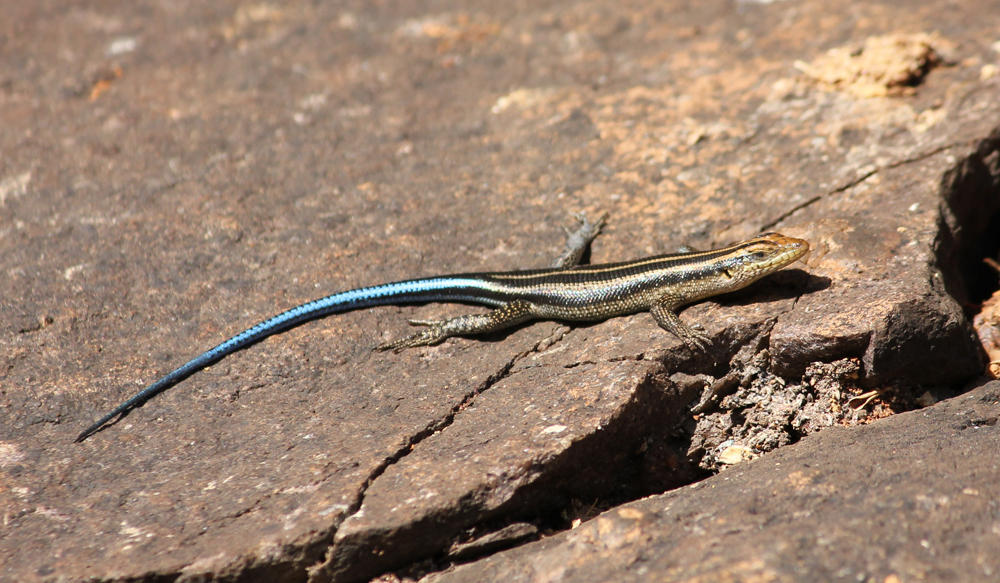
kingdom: Animalia
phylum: Chordata
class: Squamata
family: Scincidae
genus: Trachylepis
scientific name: Trachylepis margaritifera
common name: Rainbow skink
